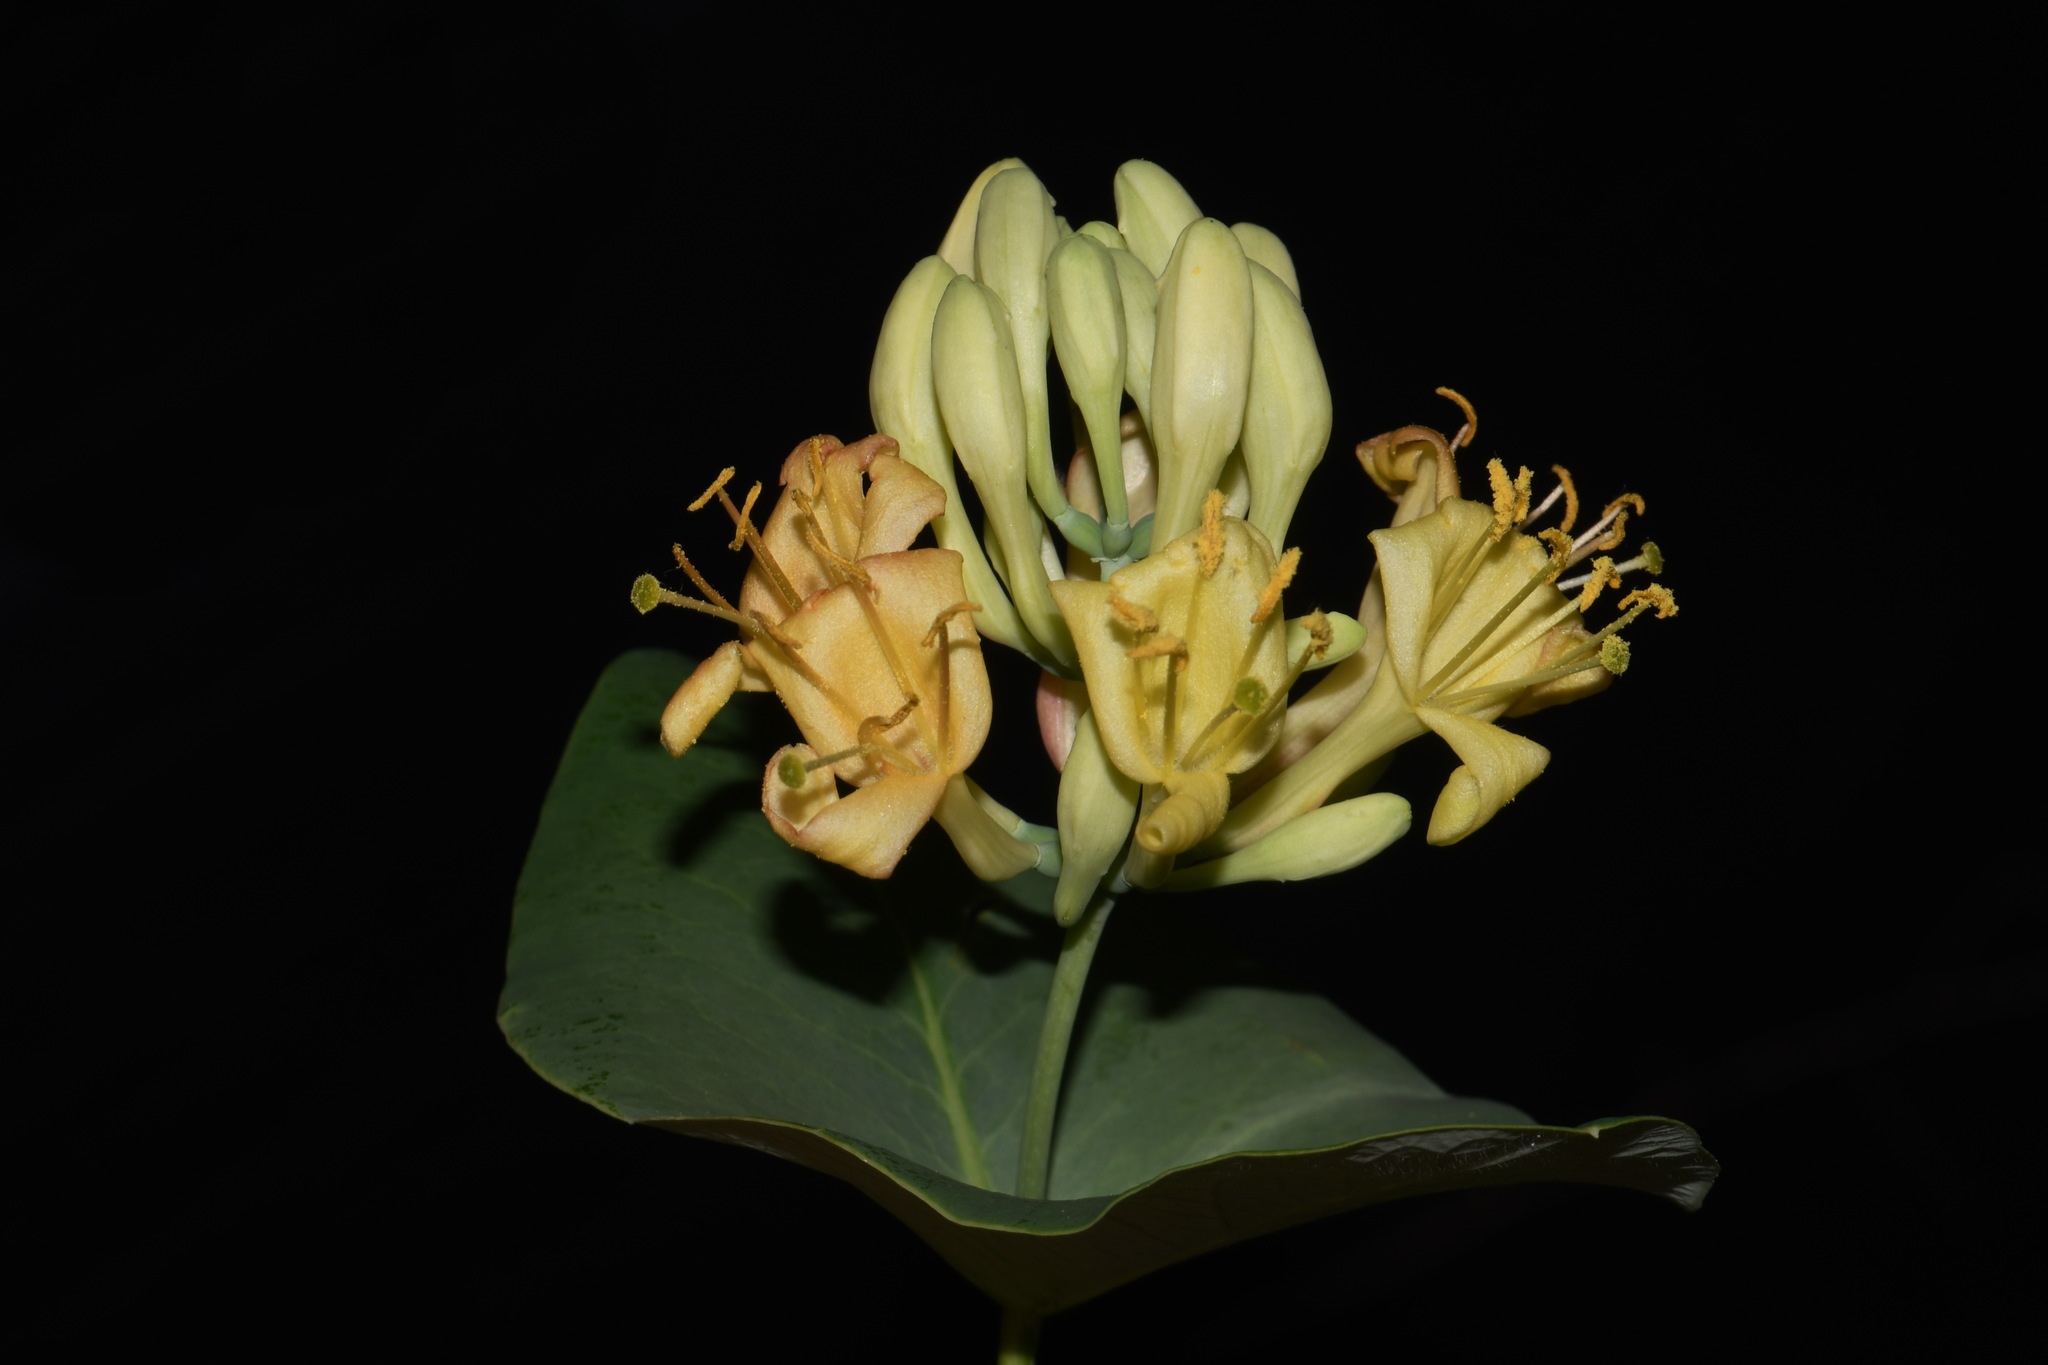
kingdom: Plantae
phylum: Tracheophyta
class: Magnoliopsida
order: Dipsacales
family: Caprifoliaceae
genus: Lonicera
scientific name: Lonicera dioica
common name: Limber honeysuckle
